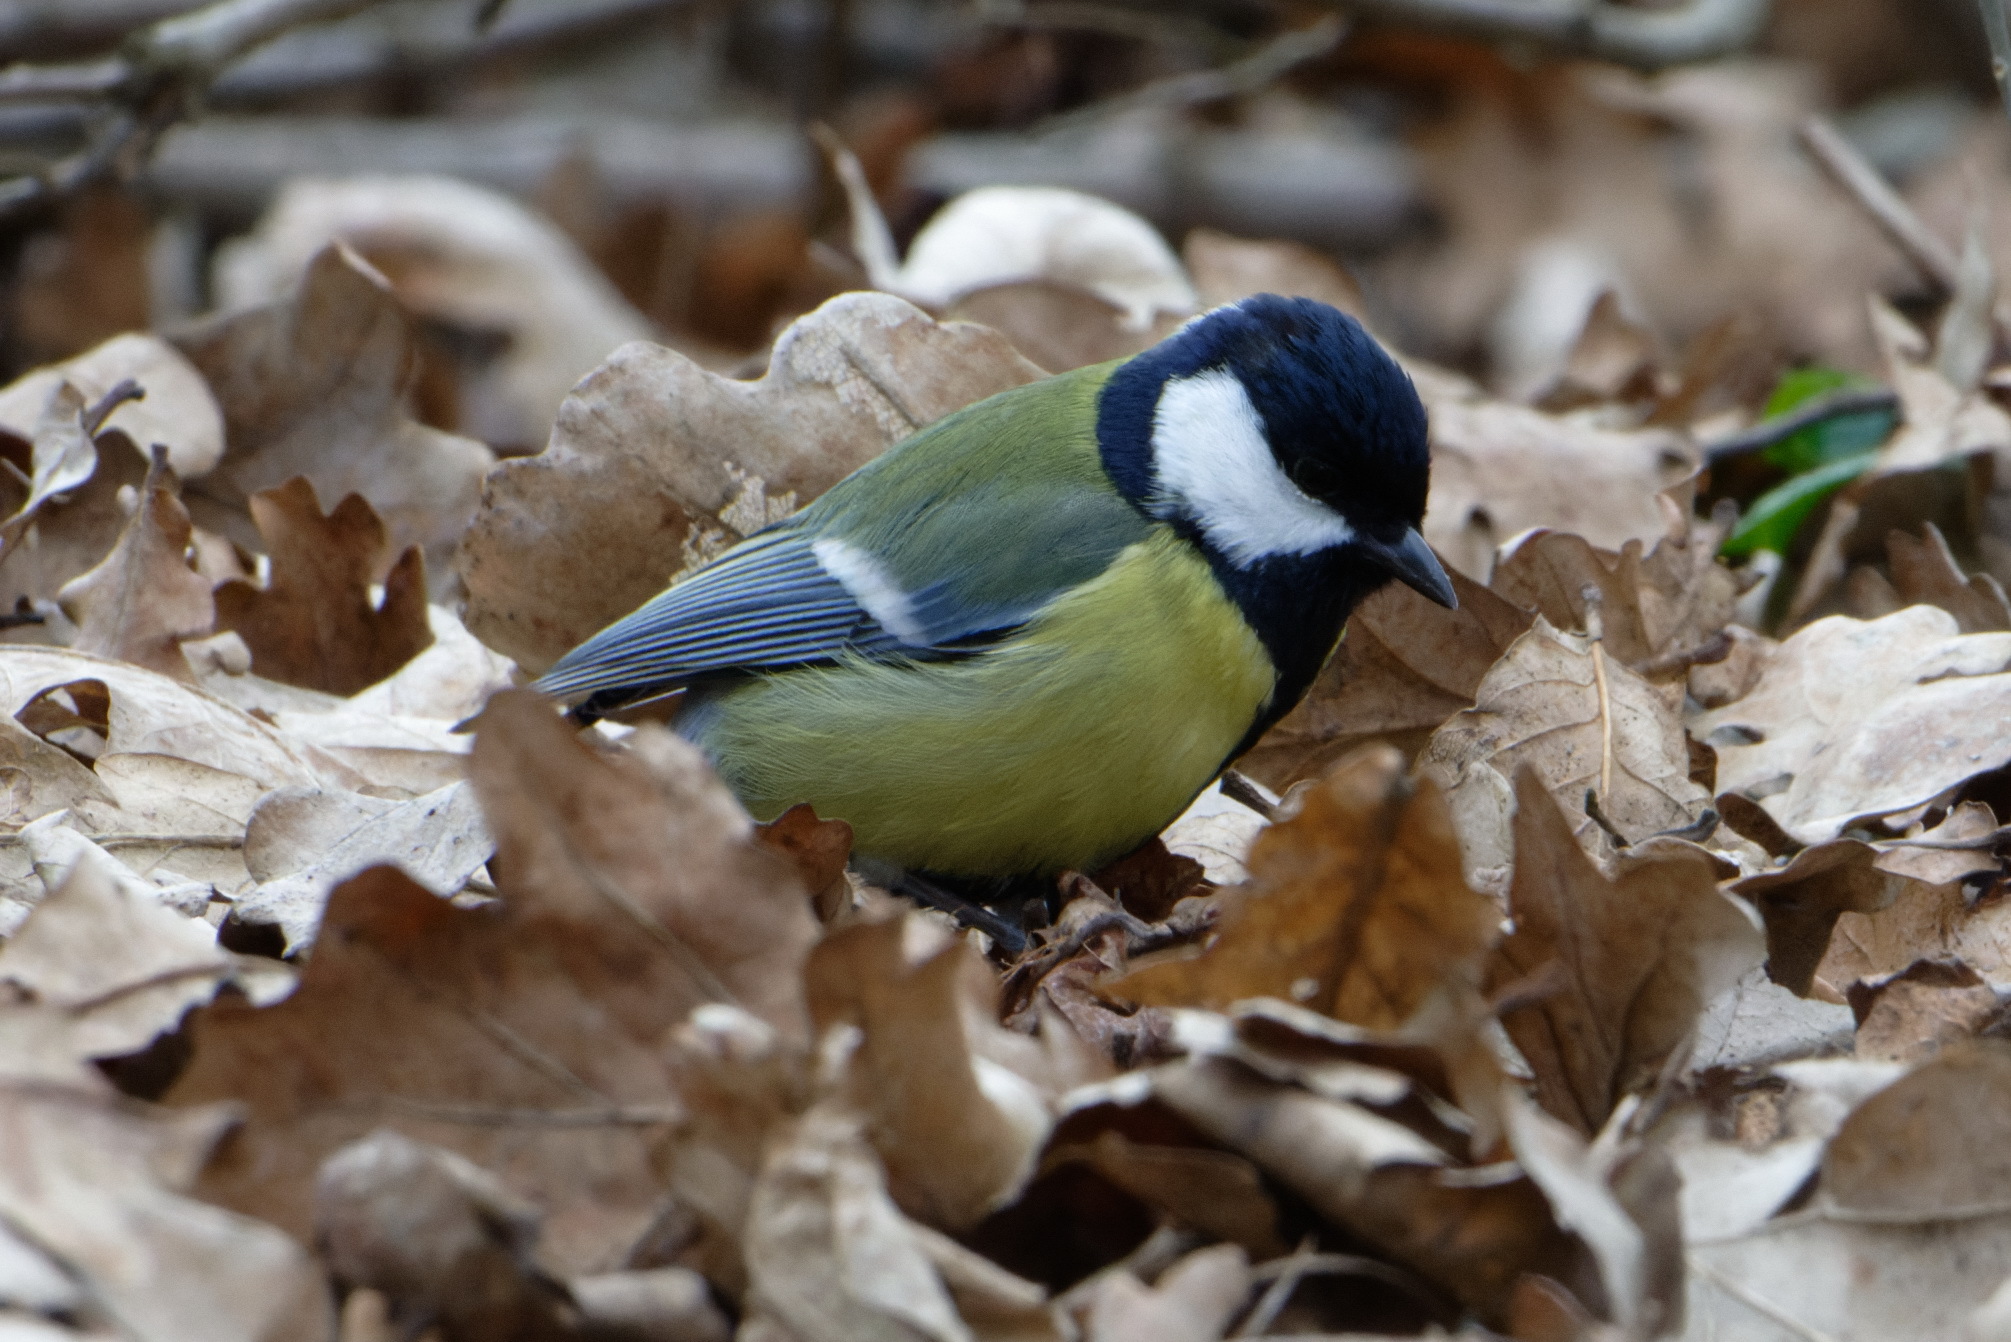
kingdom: Animalia
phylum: Chordata
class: Aves
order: Passeriformes
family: Paridae
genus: Parus
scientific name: Parus major
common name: Great tit
